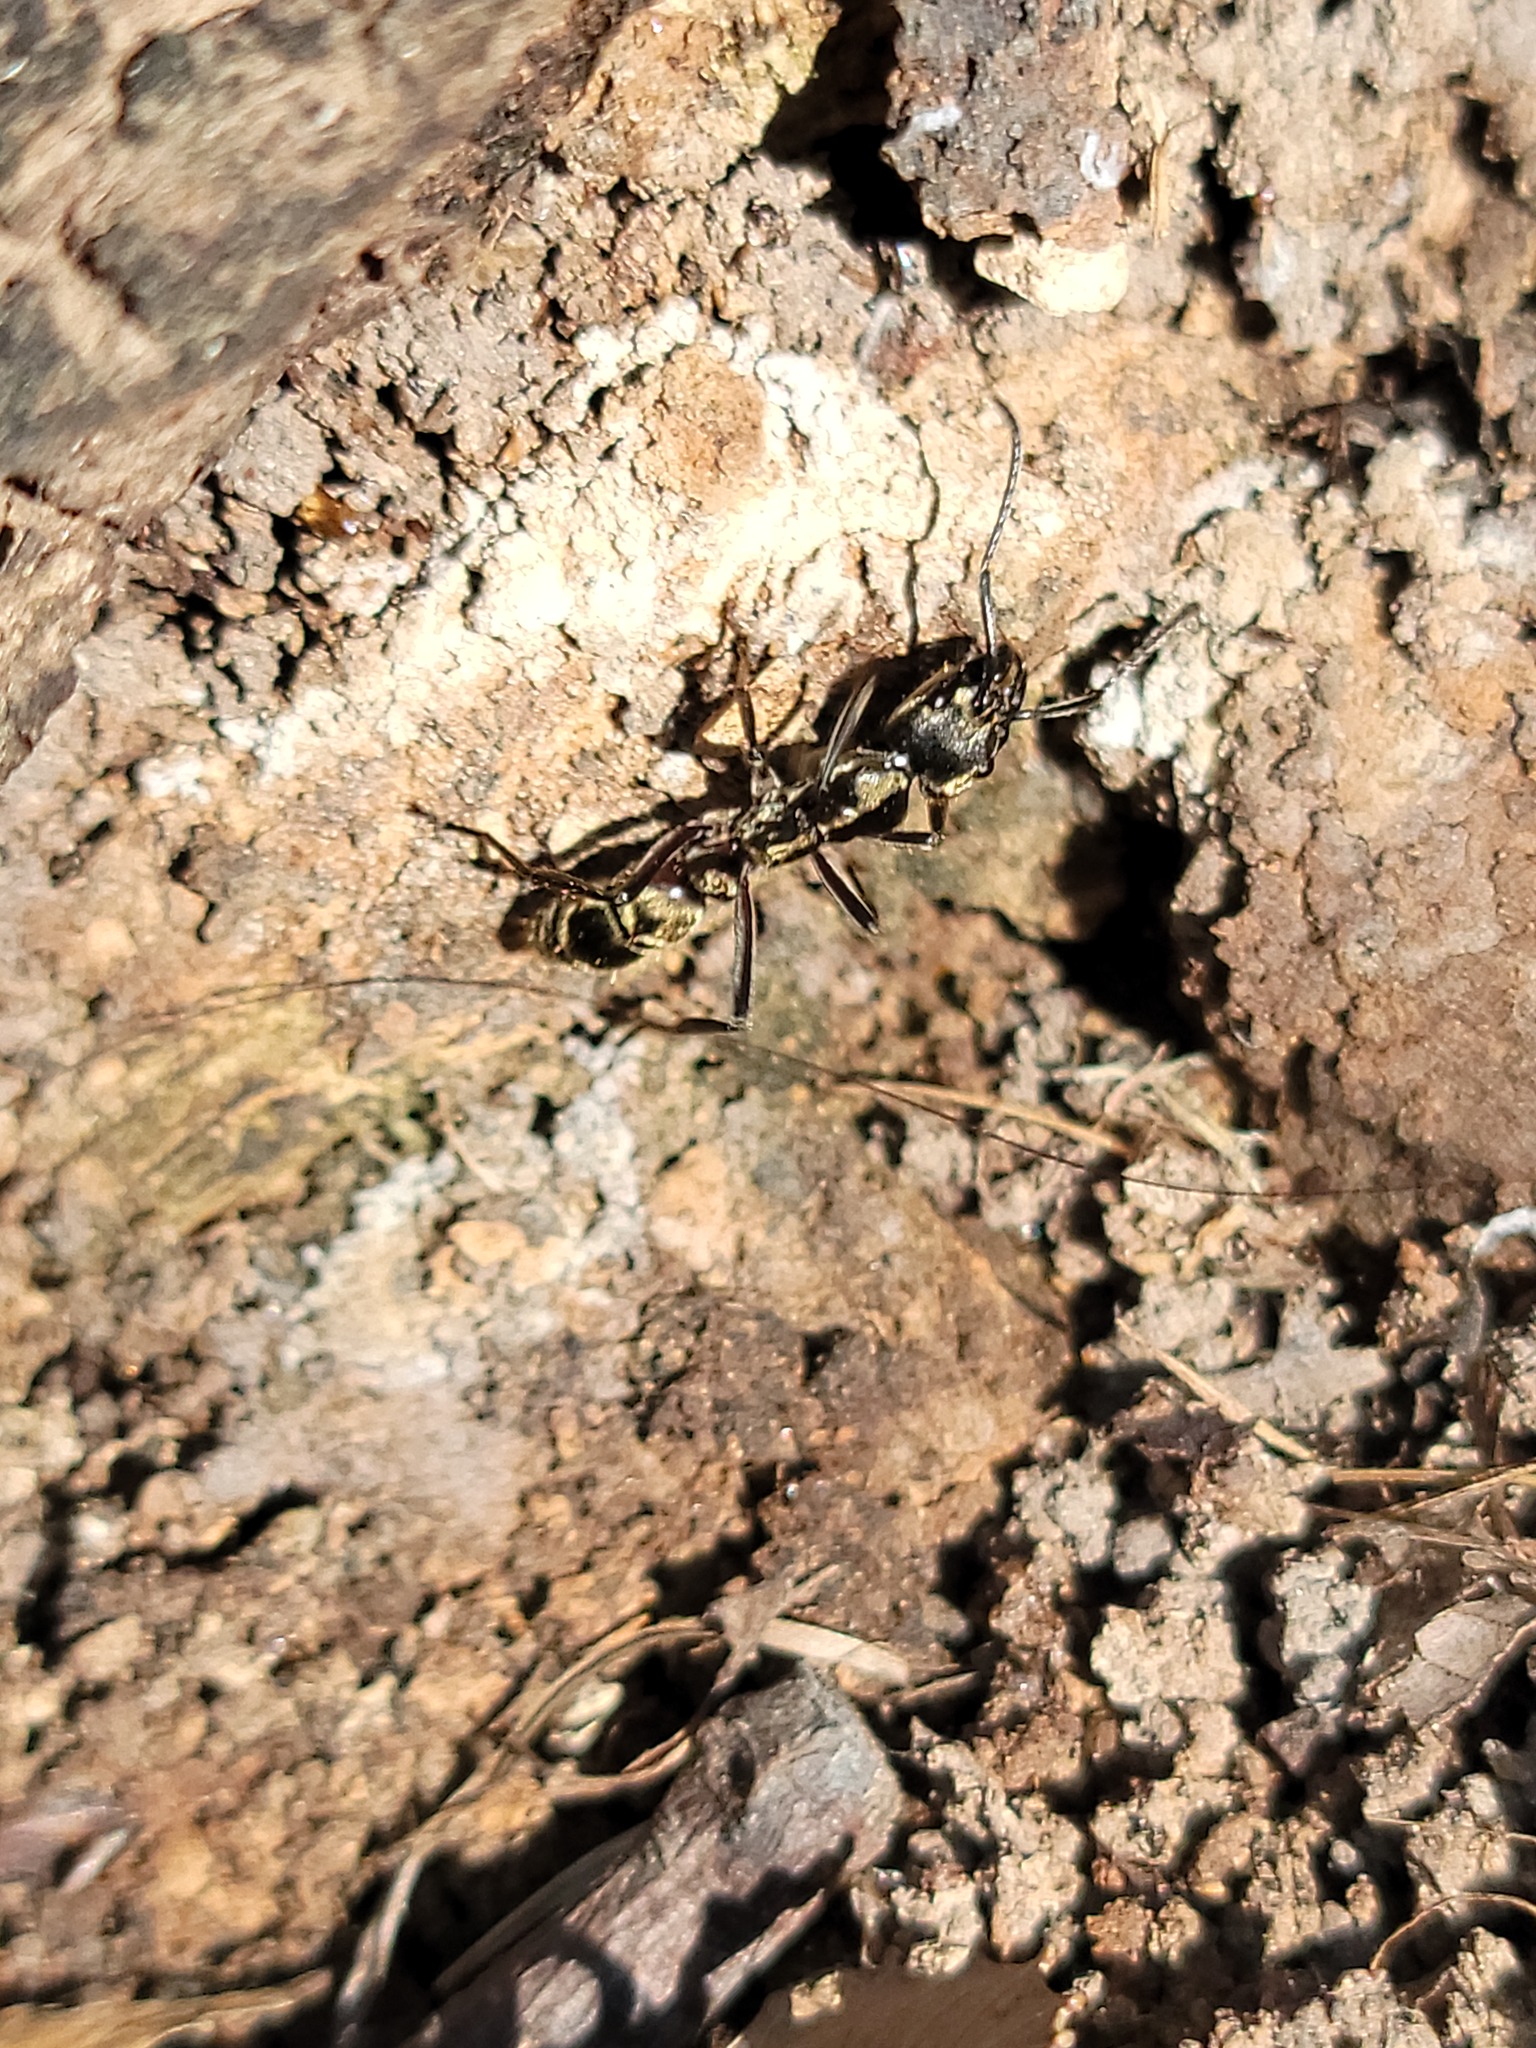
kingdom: Animalia
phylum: Arthropoda
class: Insecta
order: Hymenoptera
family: Formicidae
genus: Pachycondyla
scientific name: Pachycondyla villosa
